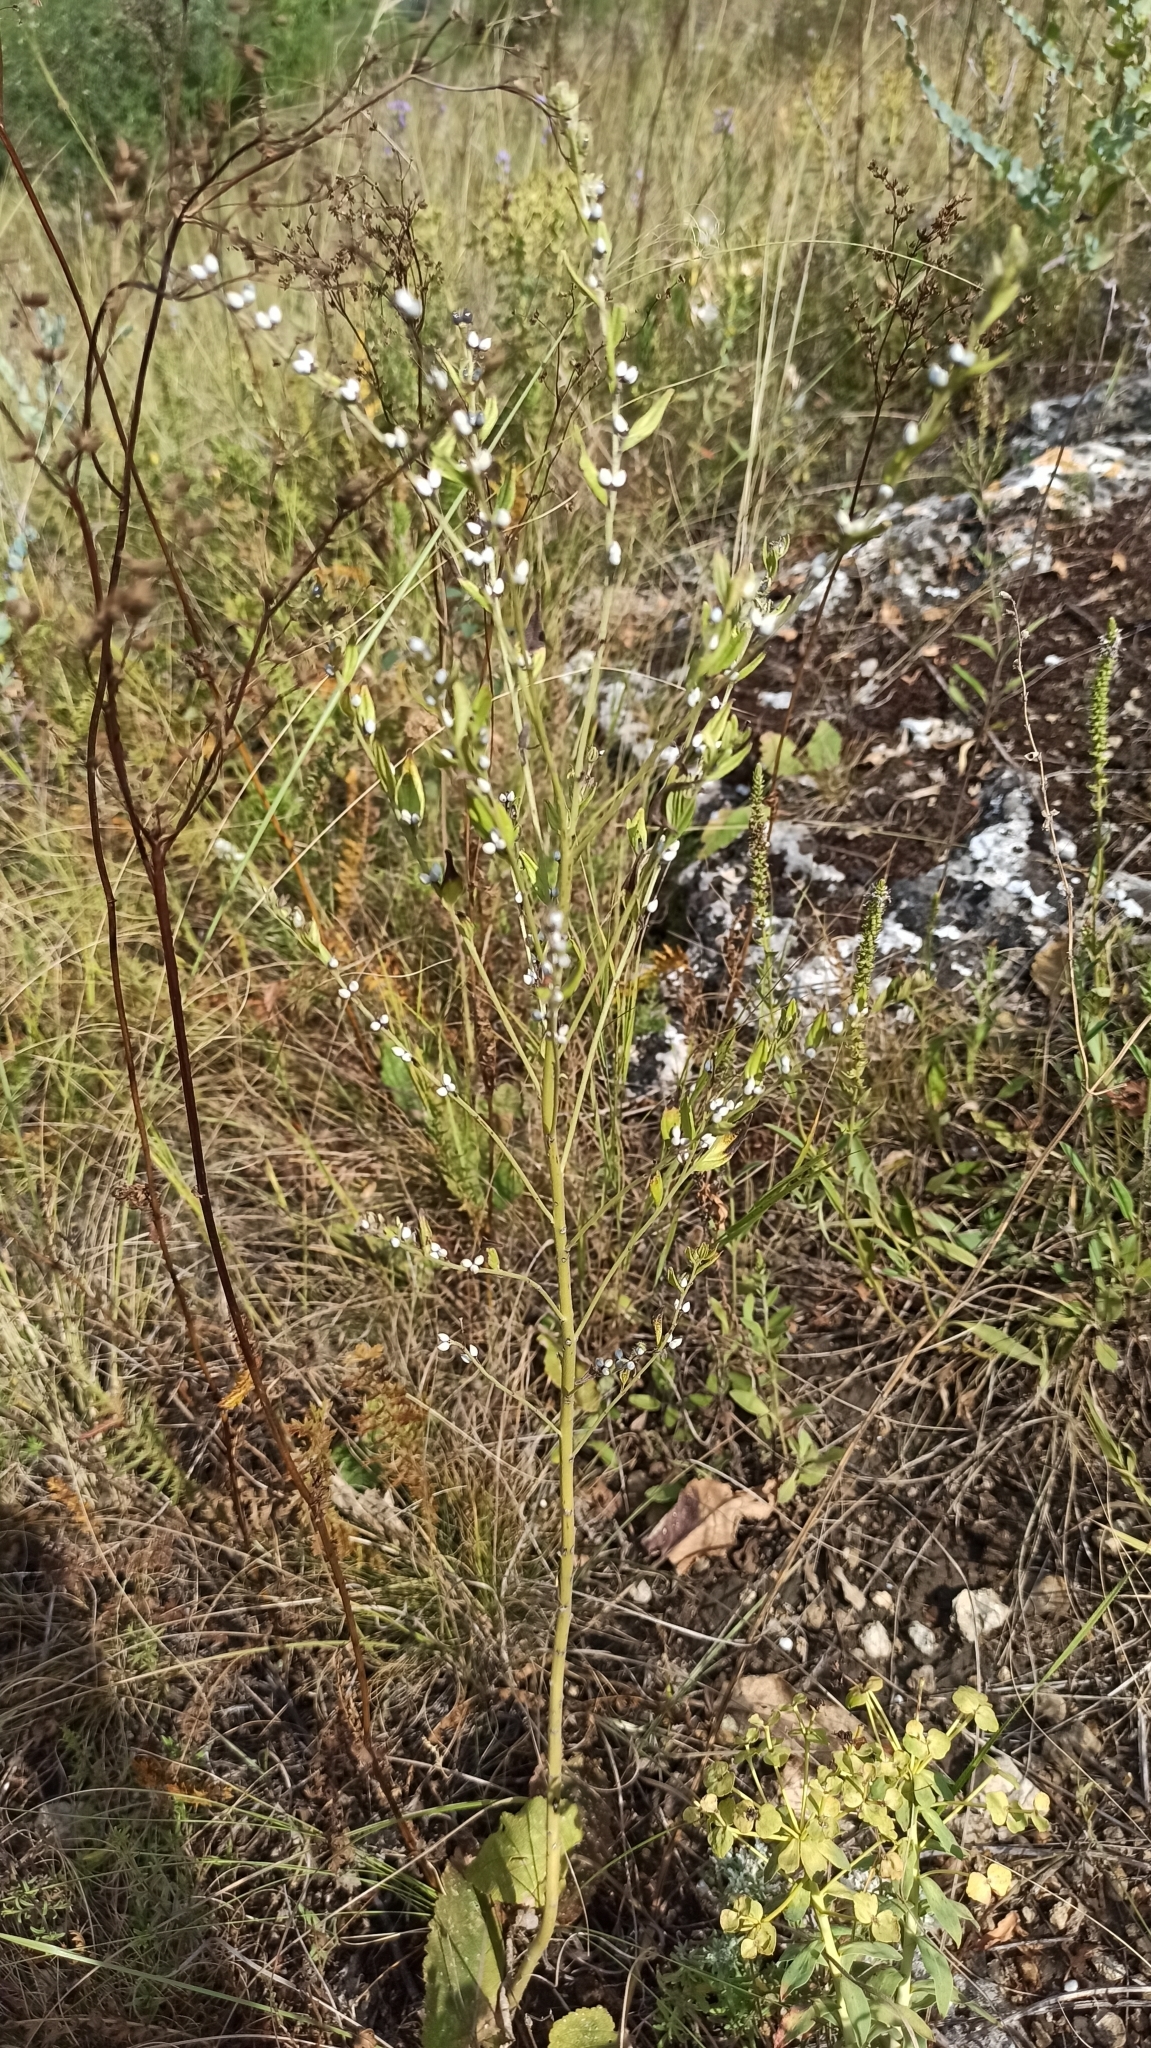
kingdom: Plantae
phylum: Tracheophyta
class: Magnoliopsida
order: Boraginales
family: Boraginaceae
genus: Lithospermum
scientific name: Lithospermum officinale
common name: Common gromwell
